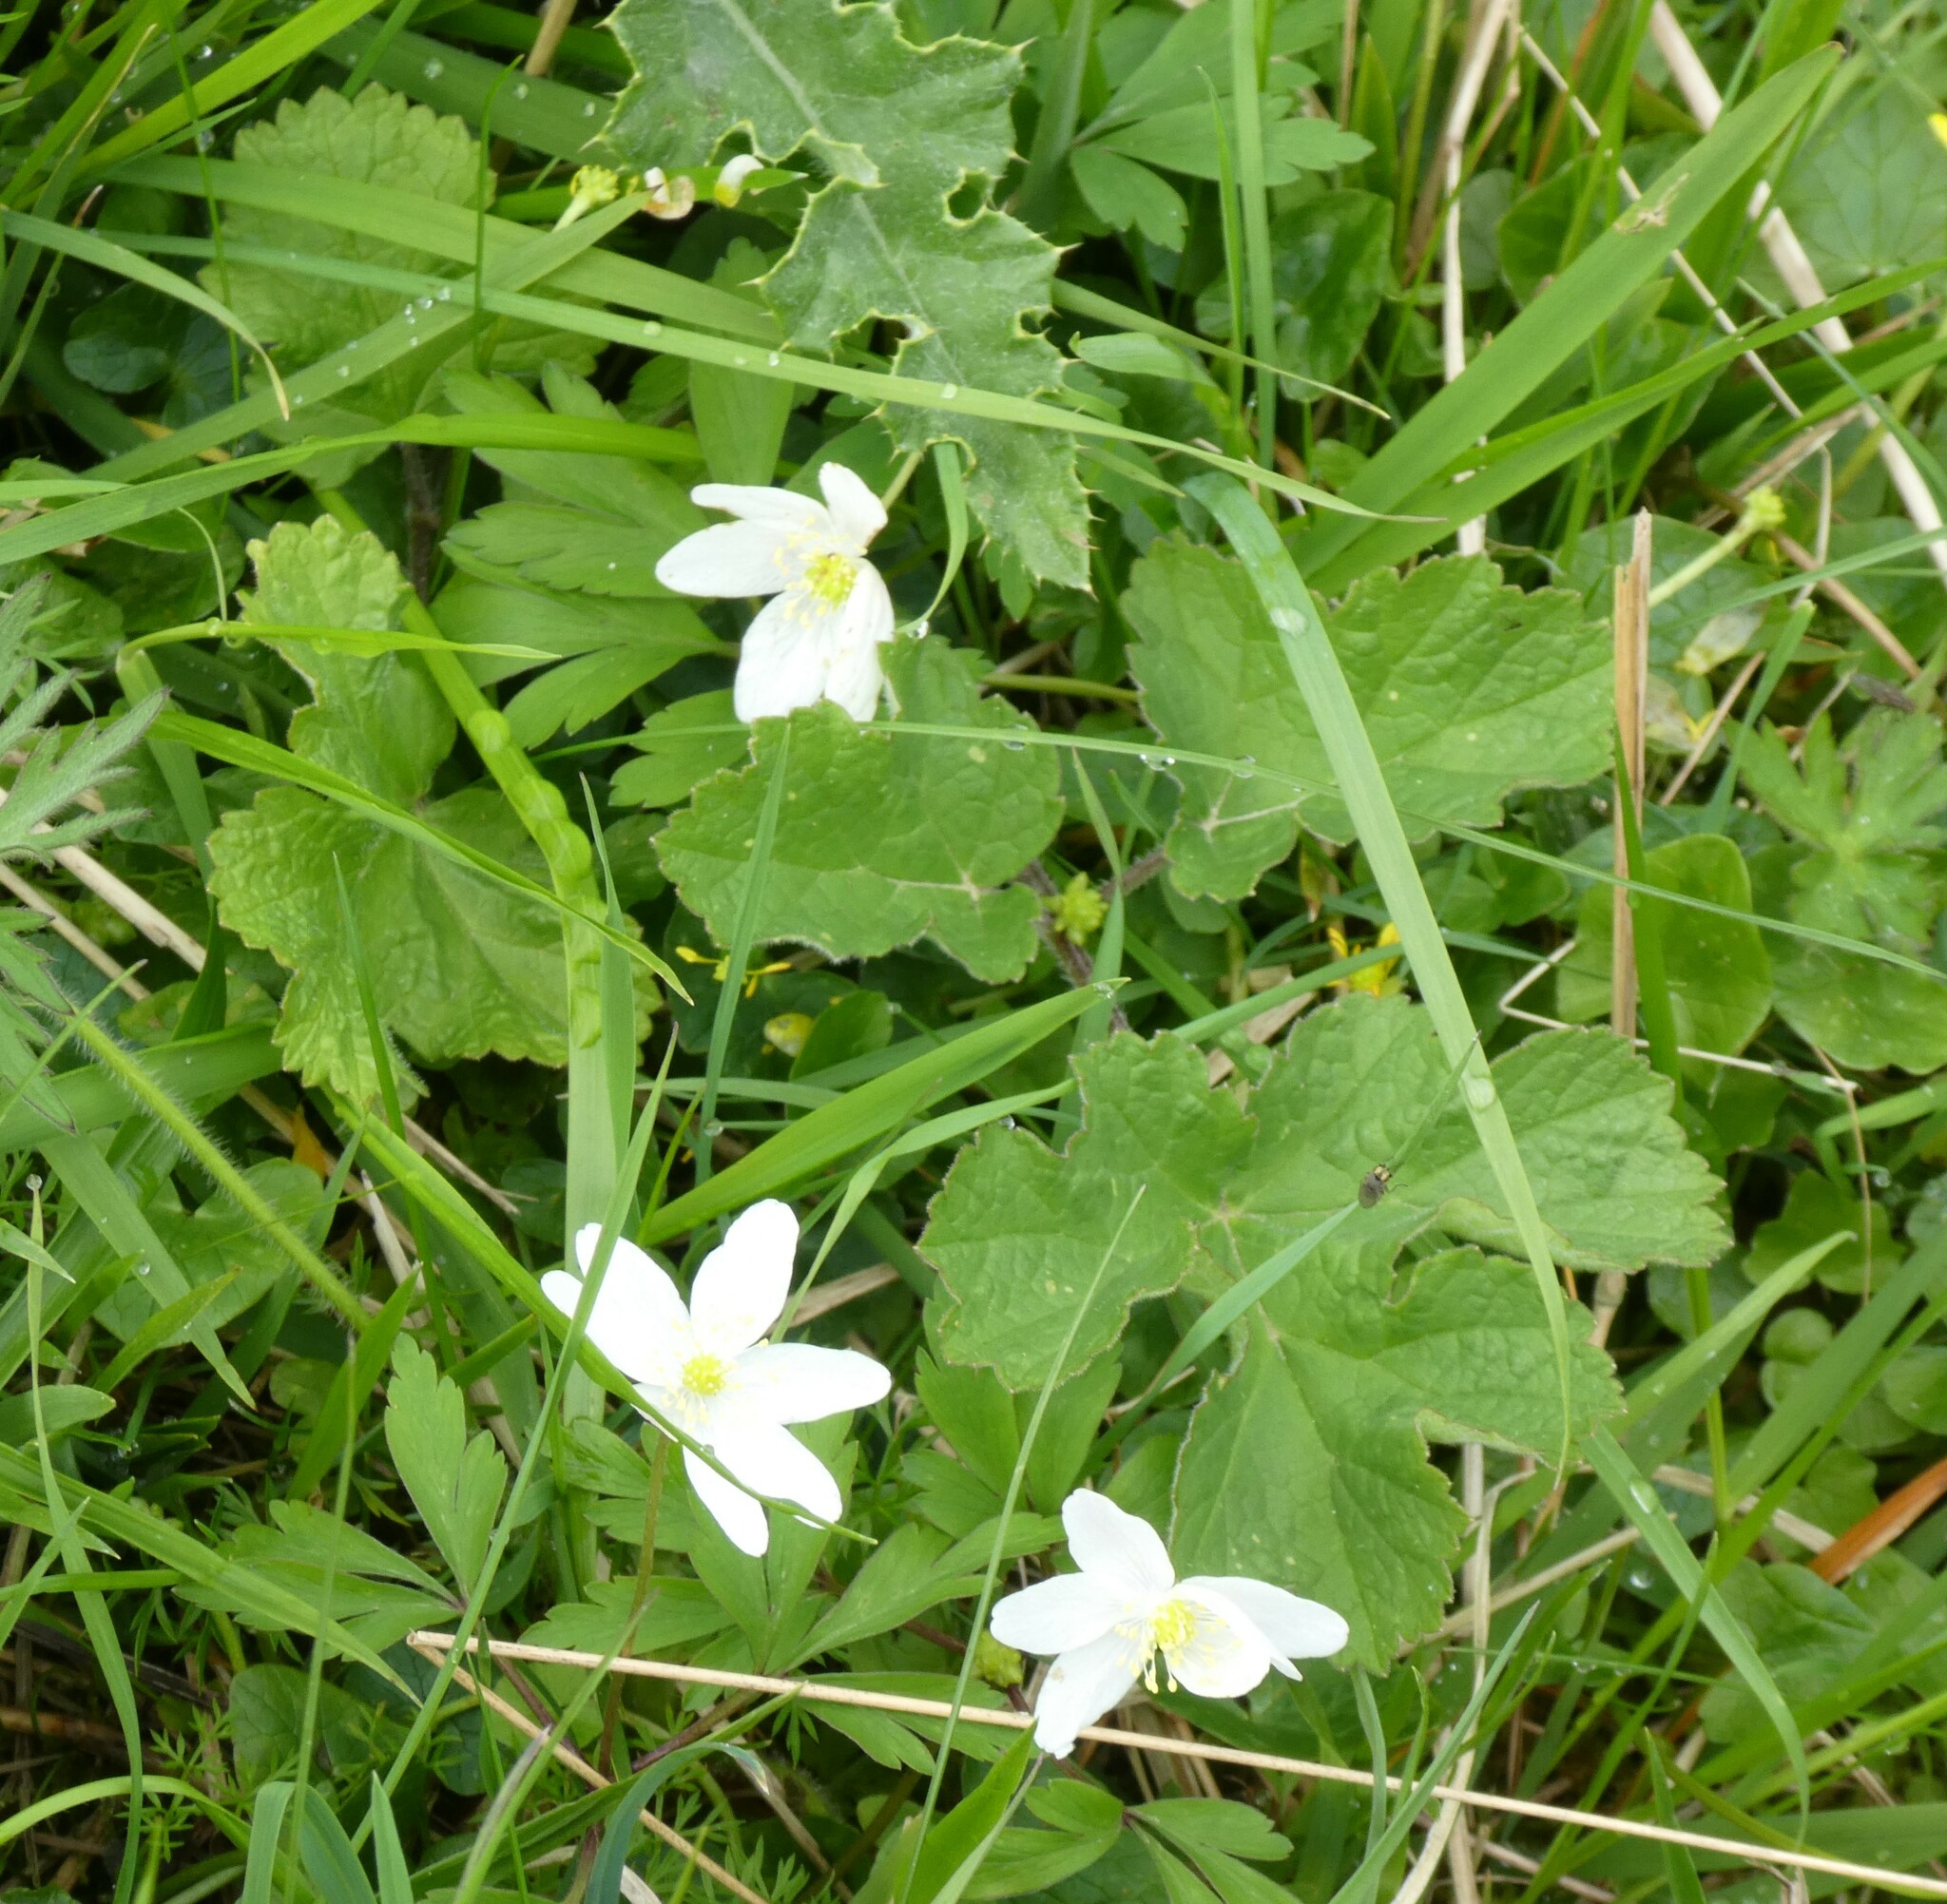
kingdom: Plantae
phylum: Tracheophyta
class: Magnoliopsida
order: Ranunculales
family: Ranunculaceae
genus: Anemone
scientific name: Anemone nemorosa
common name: Wood anemone
